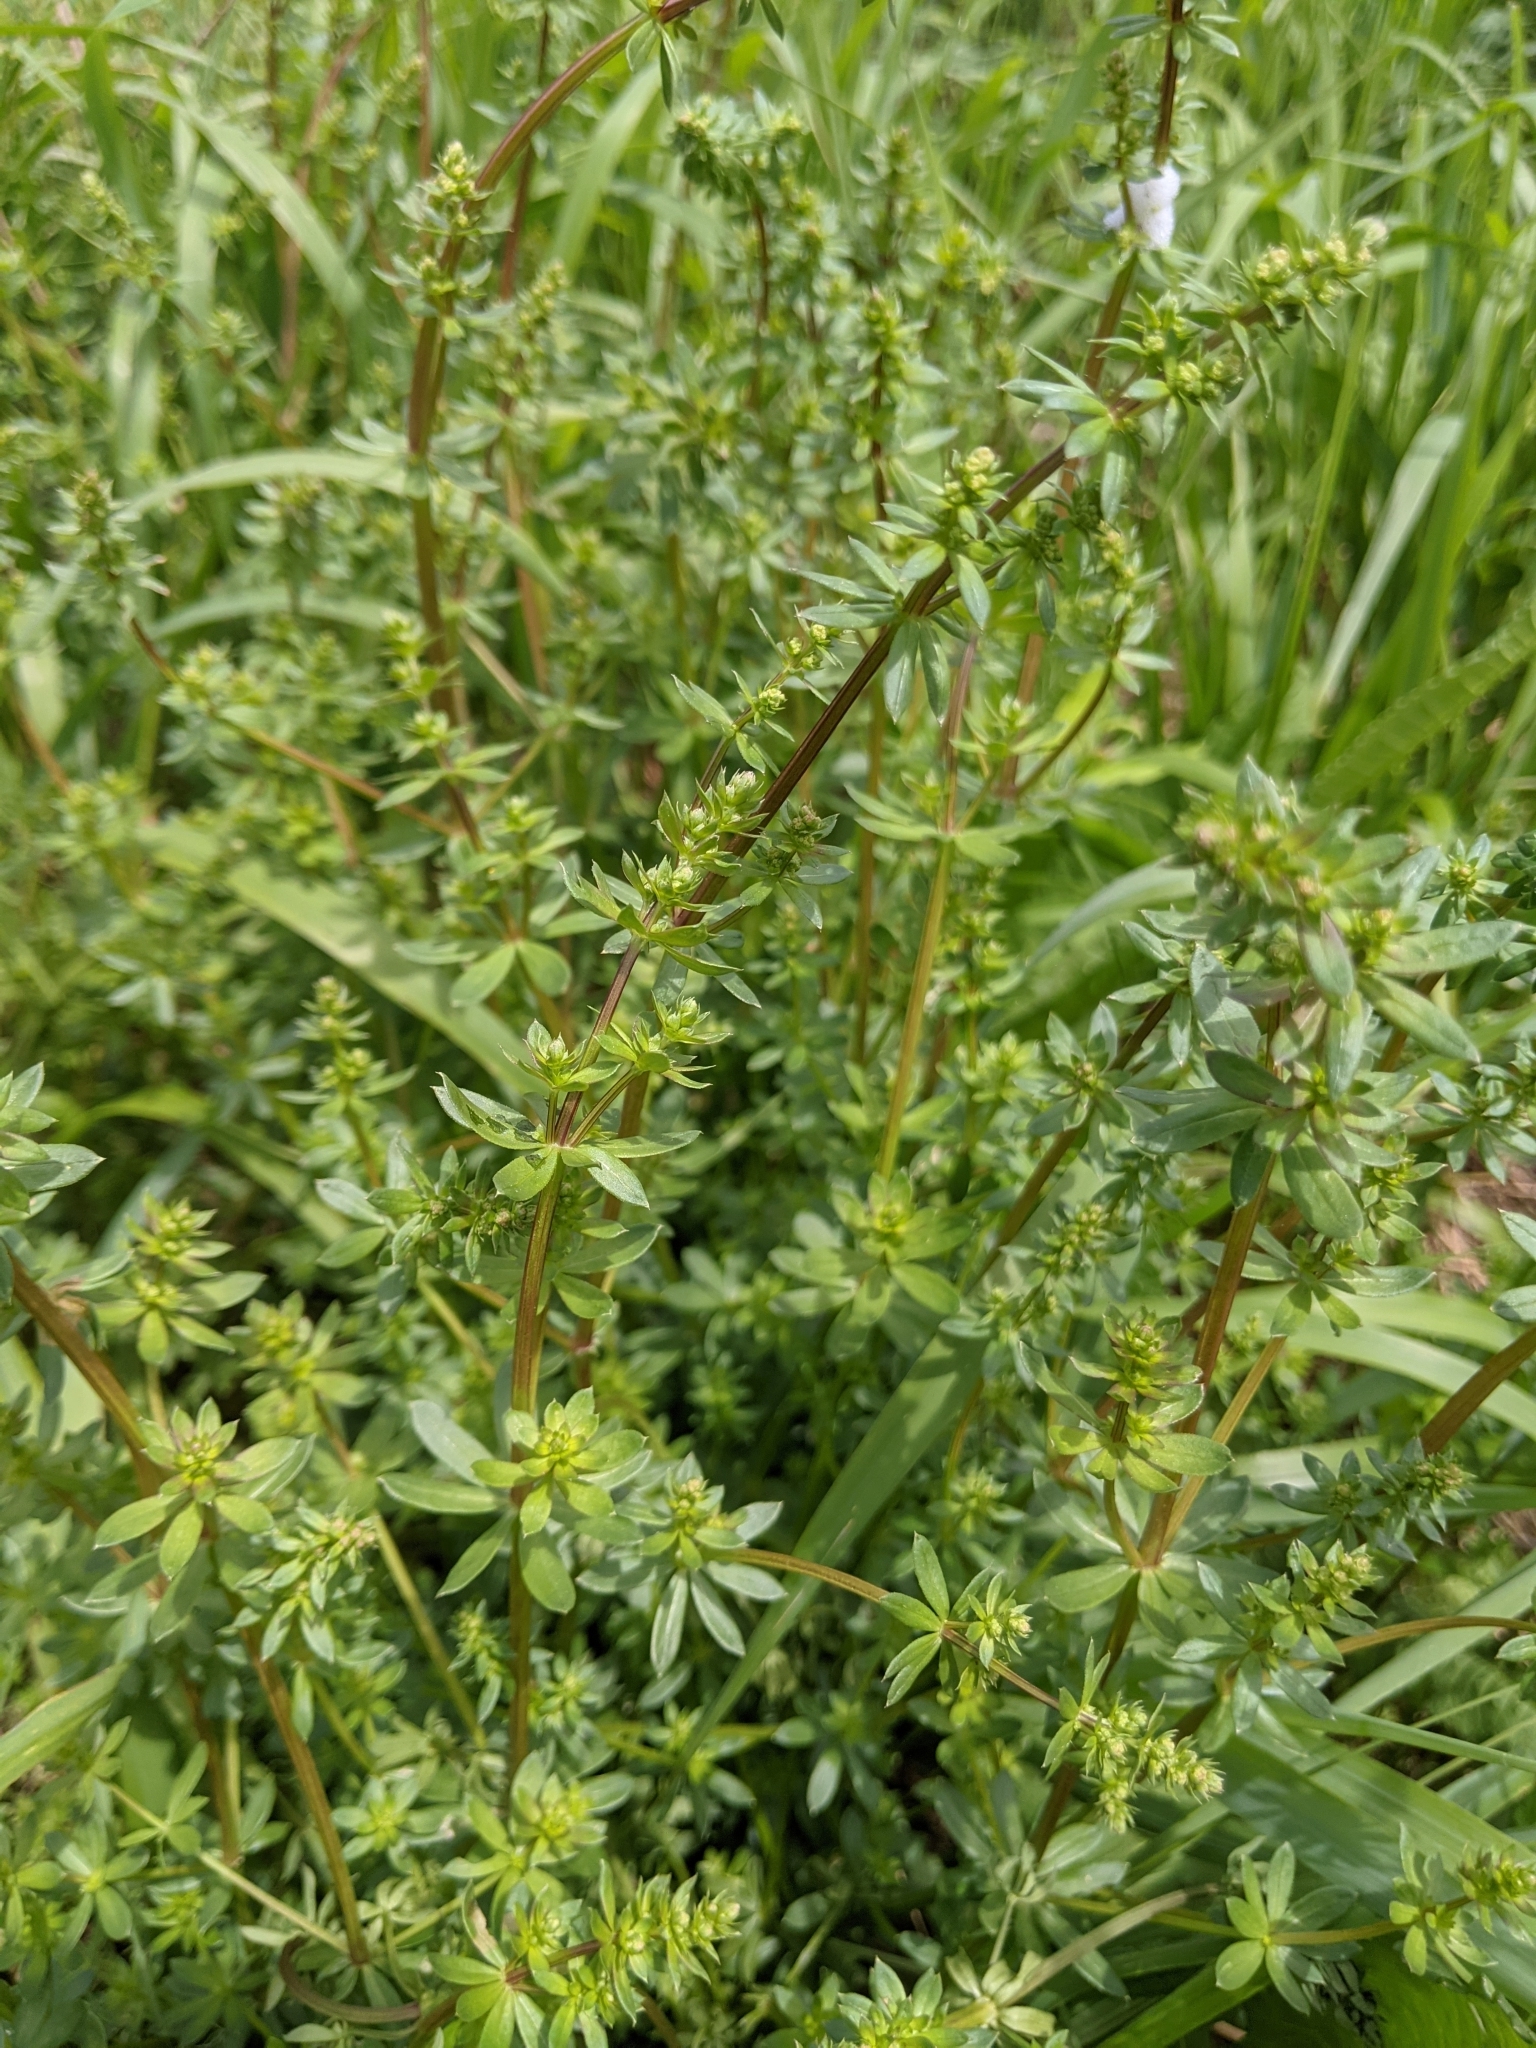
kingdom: Plantae
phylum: Tracheophyta
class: Magnoliopsida
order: Gentianales
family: Rubiaceae
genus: Galium
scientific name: Galium mollugo
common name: Hedge bedstraw
